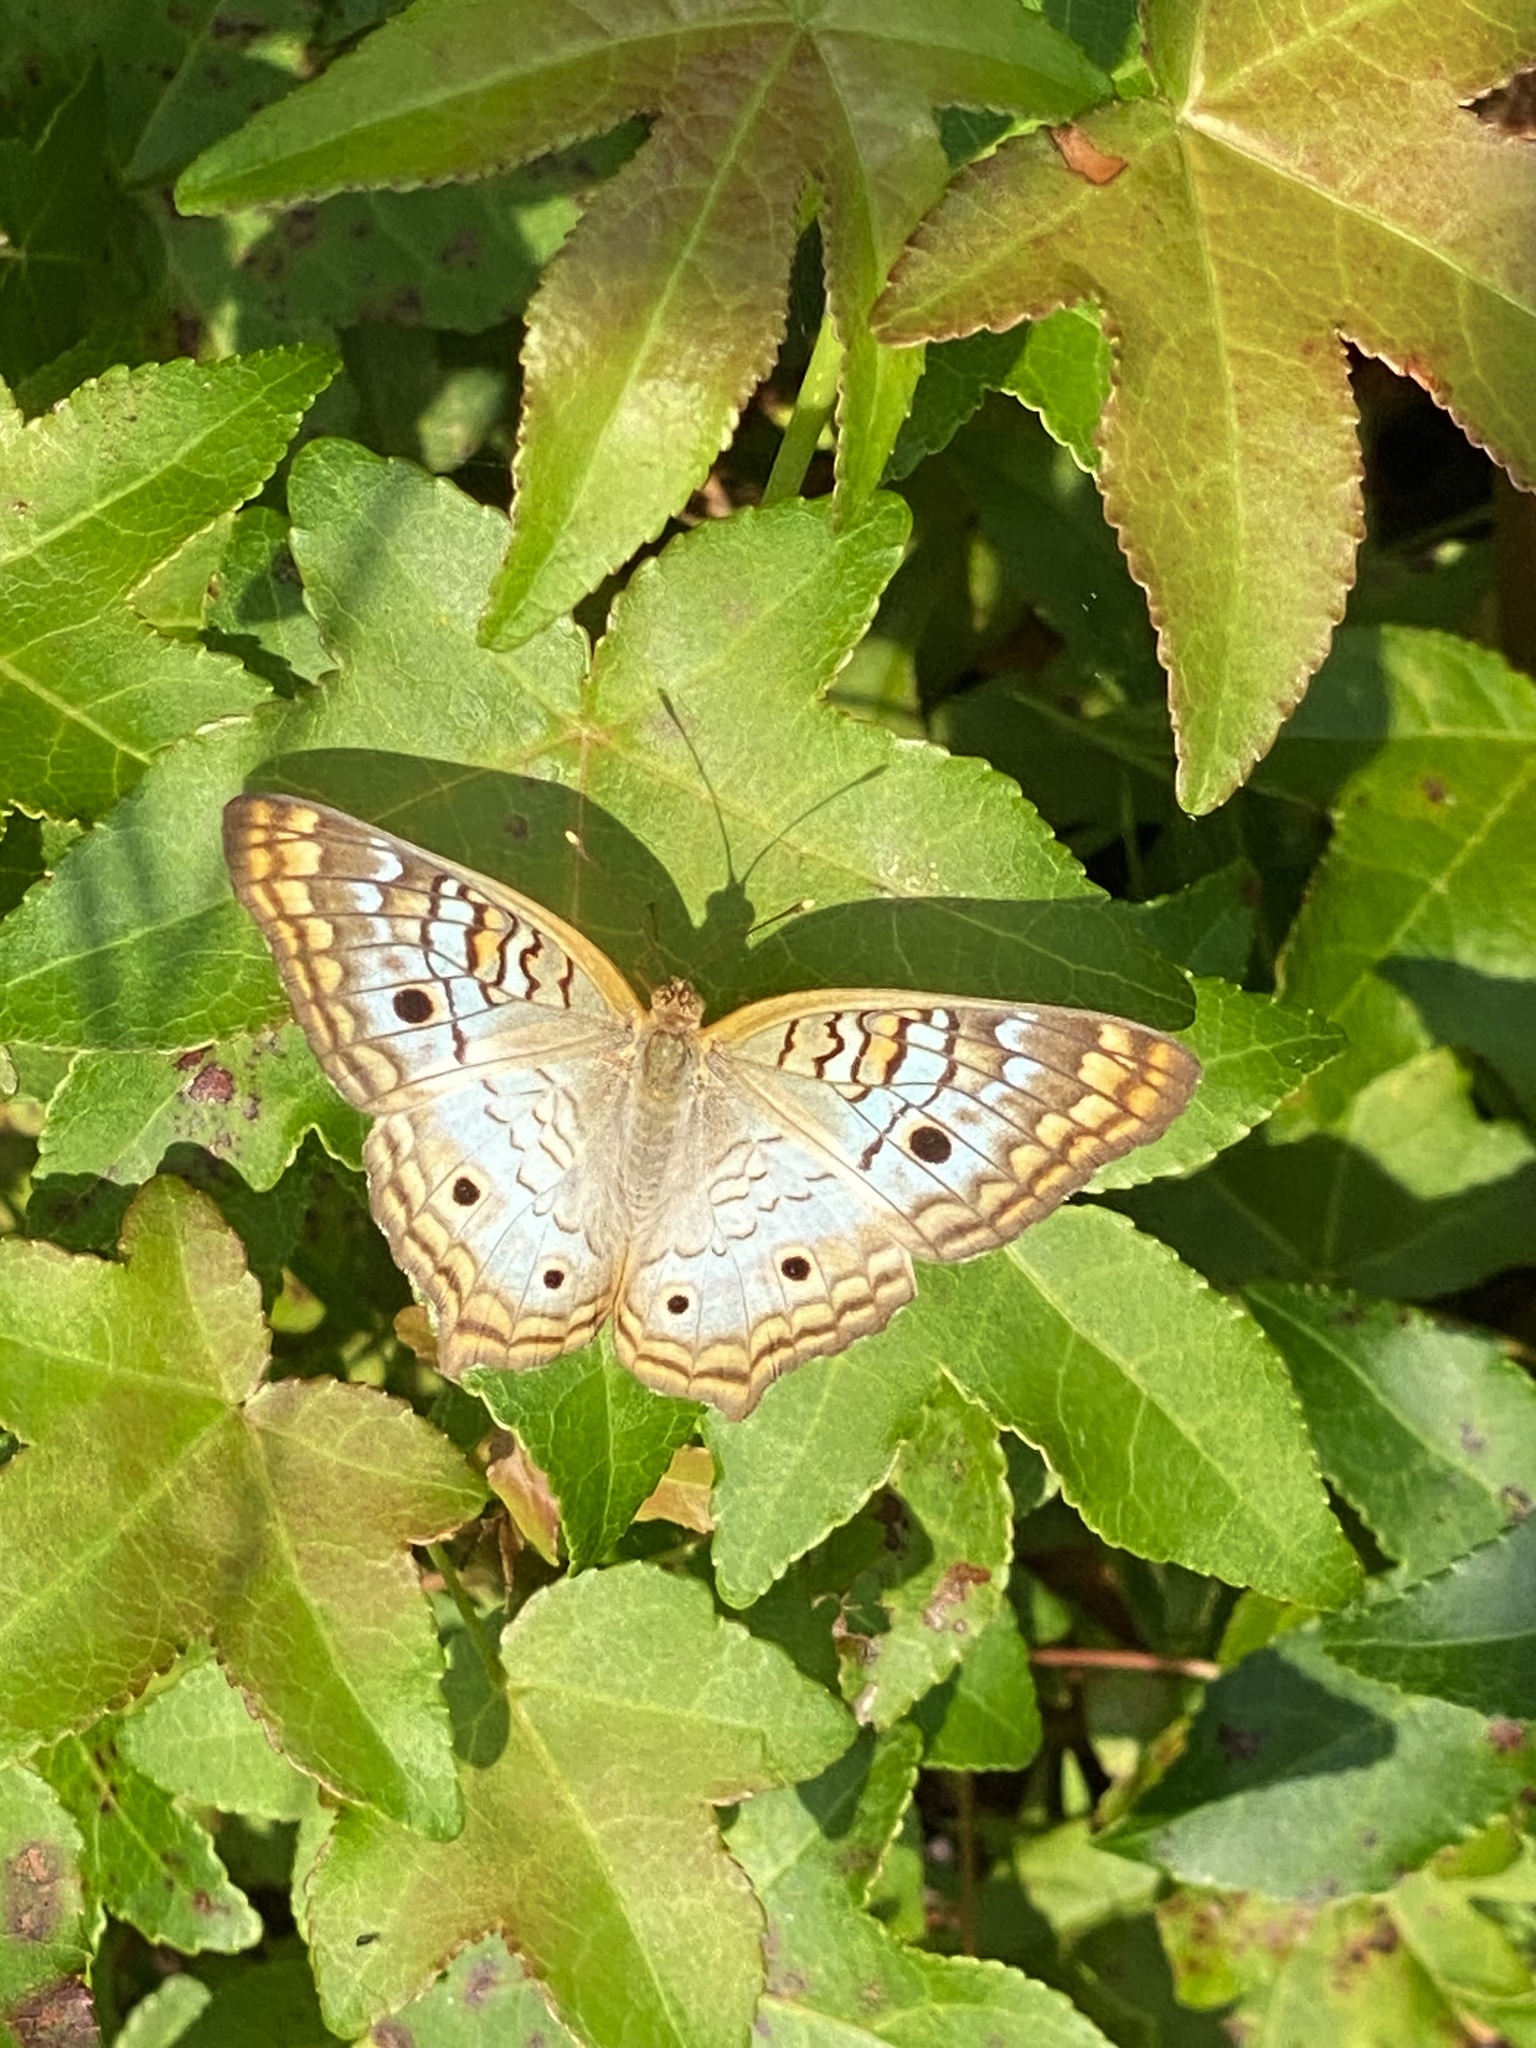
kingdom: Animalia
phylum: Arthropoda
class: Insecta
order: Lepidoptera
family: Nymphalidae
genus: Anartia
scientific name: Anartia jatrophae
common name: White peacock
